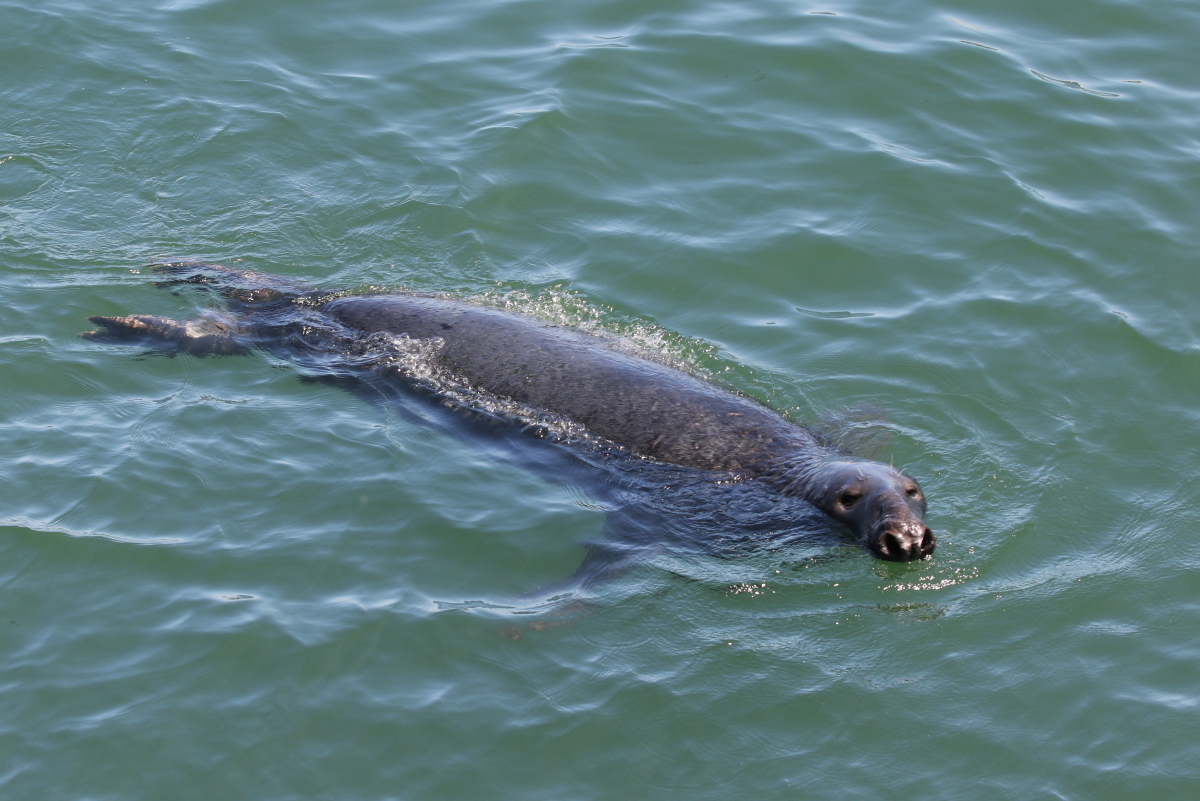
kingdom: Animalia
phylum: Chordata
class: Mammalia
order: Carnivora
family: Phocidae
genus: Halichoerus
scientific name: Halichoerus grypus
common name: Grey seal
